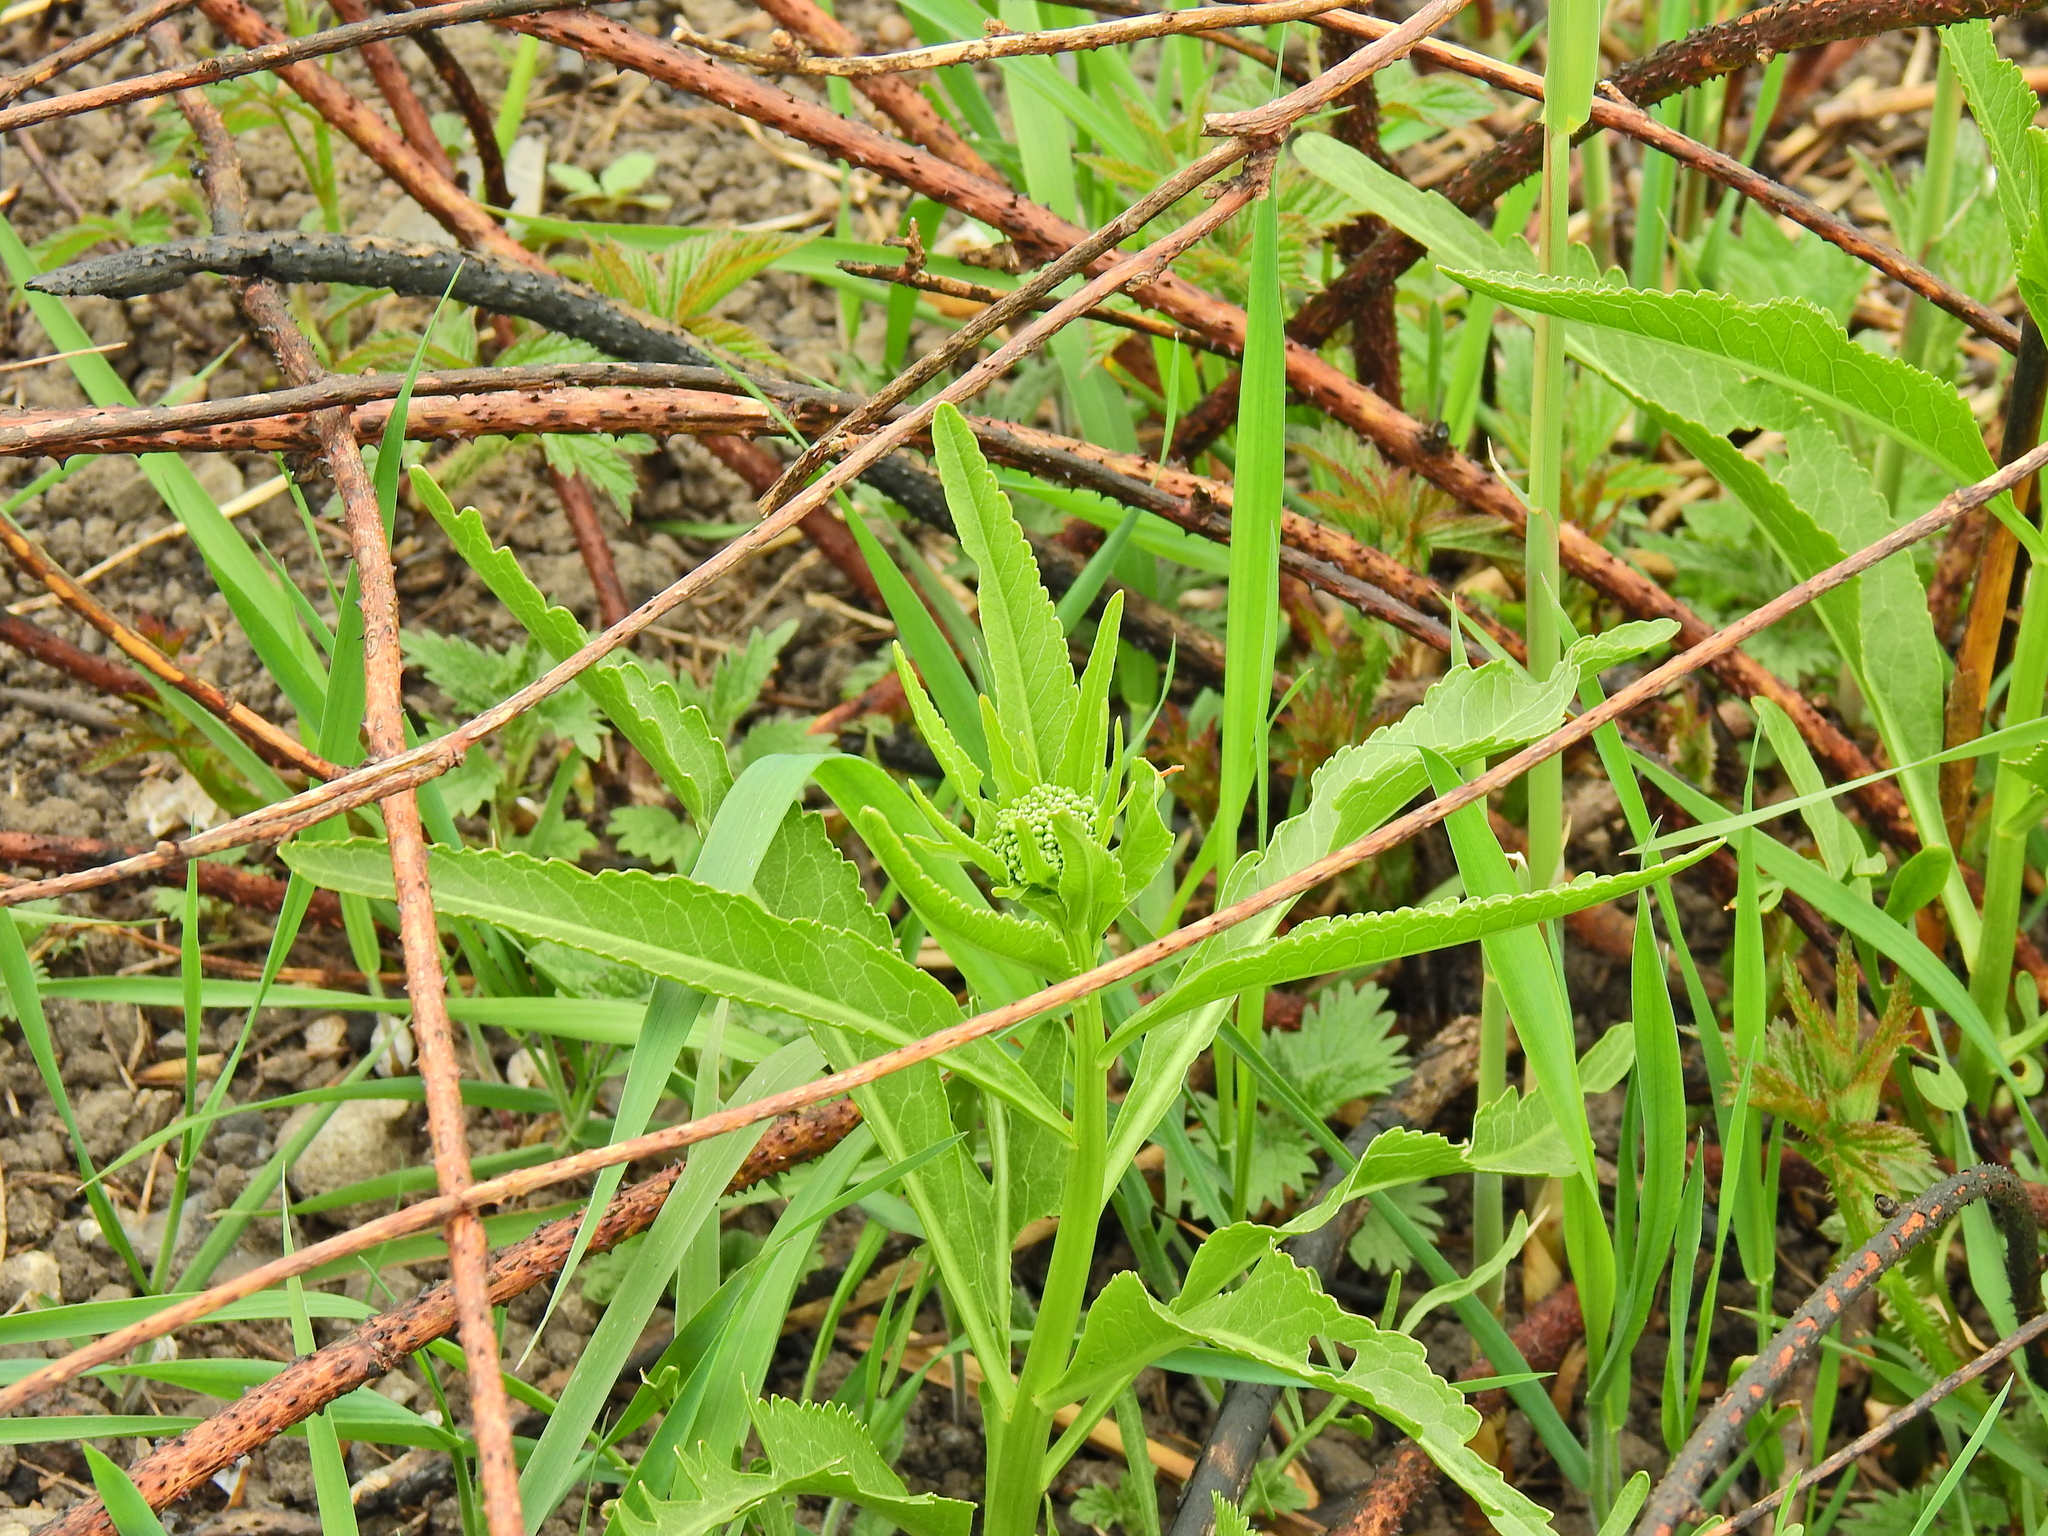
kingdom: Plantae
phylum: Tracheophyta
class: Magnoliopsida
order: Brassicales
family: Brassicaceae
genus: Armoracia
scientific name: Armoracia rusticana
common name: Horseradish
